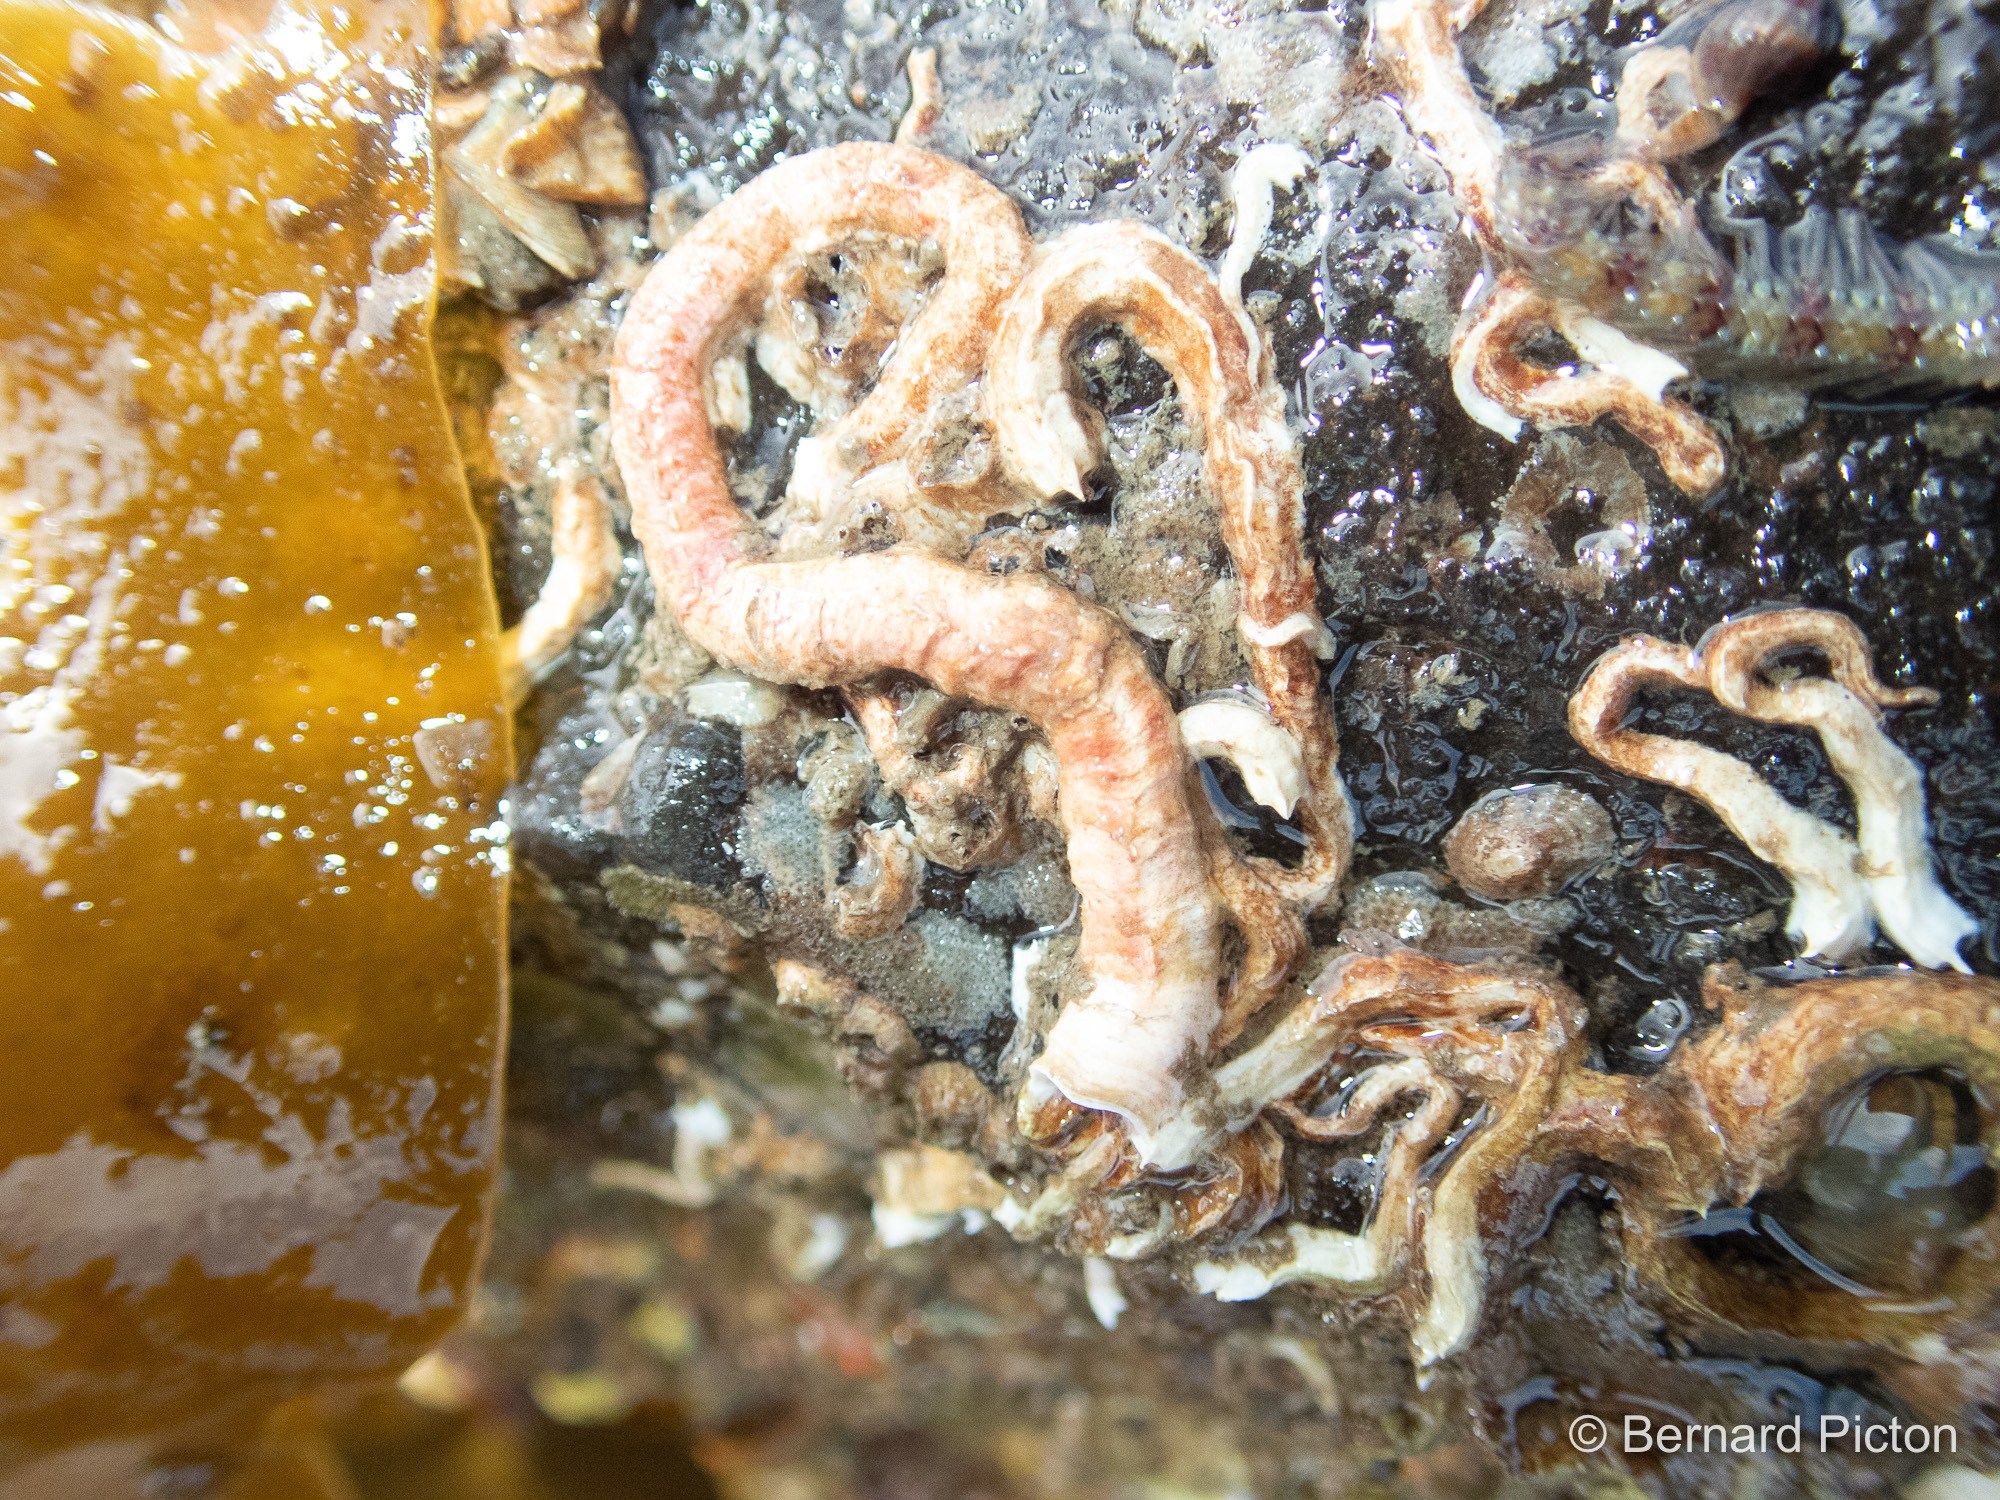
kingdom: Animalia
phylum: Annelida
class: Polychaeta
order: Sabellida
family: Serpulidae
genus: Serpula
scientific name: Serpula vermicularis
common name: Calcareous tubeworm
